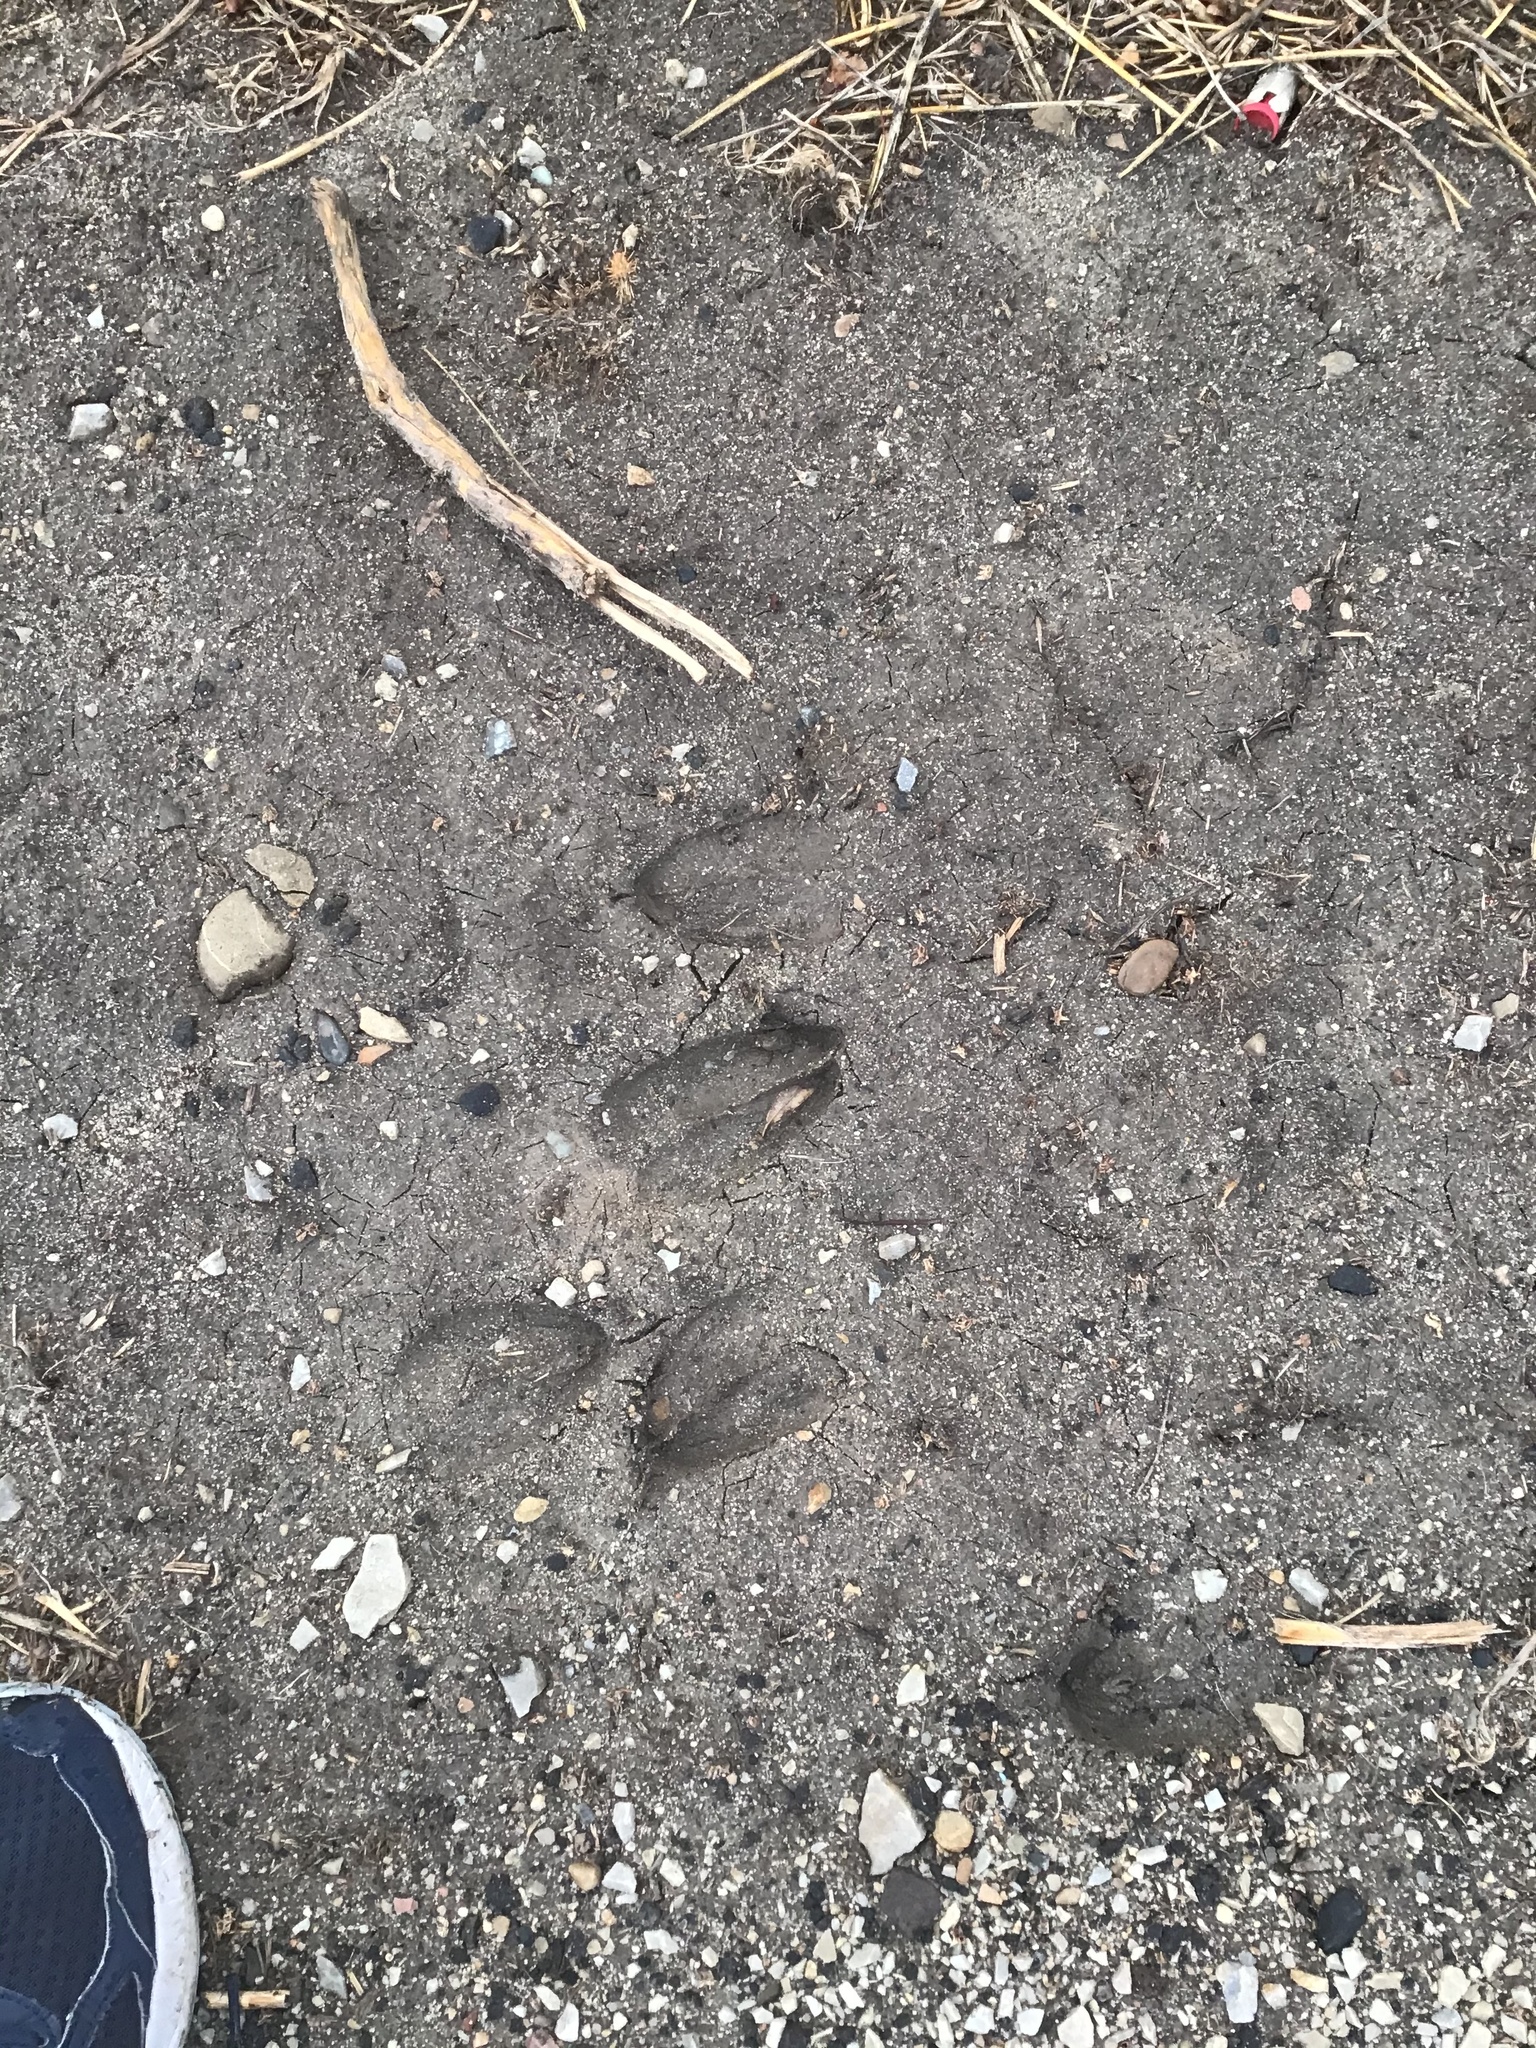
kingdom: Animalia
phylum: Chordata
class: Mammalia
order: Artiodactyla
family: Cervidae
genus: Odocoileus
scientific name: Odocoileus hemionus
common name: Mule deer
